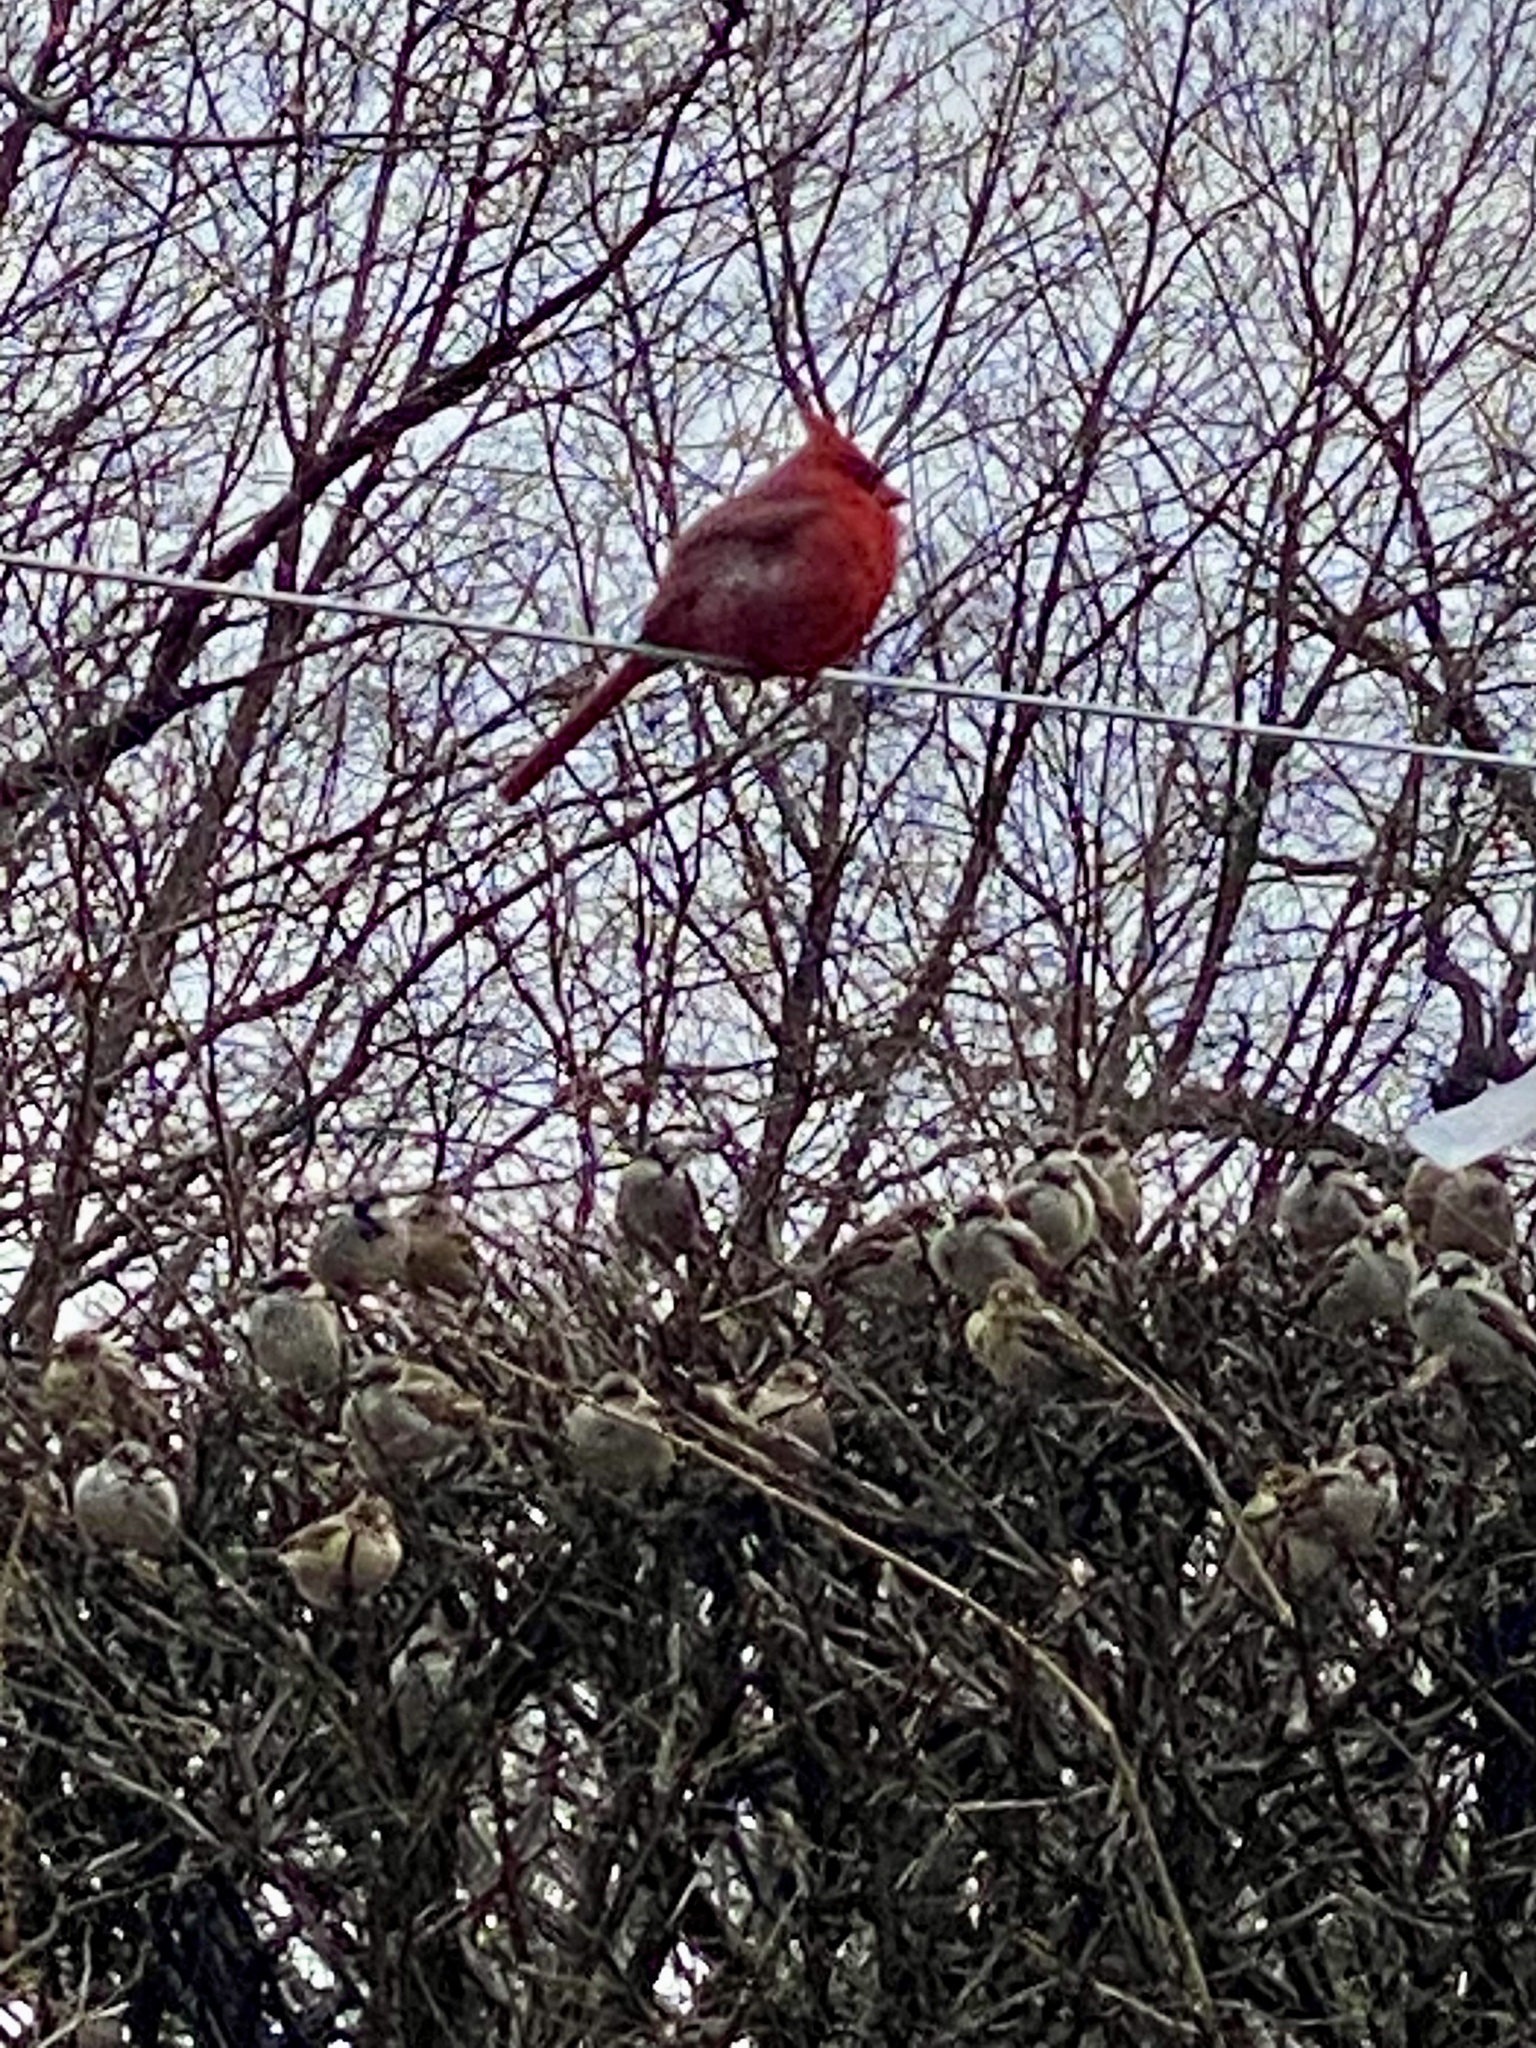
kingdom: Animalia
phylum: Chordata
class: Aves
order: Passeriformes
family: Cardinalidae
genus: Cardinalis
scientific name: Cardinalis cardinalis
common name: Northern cardinal
